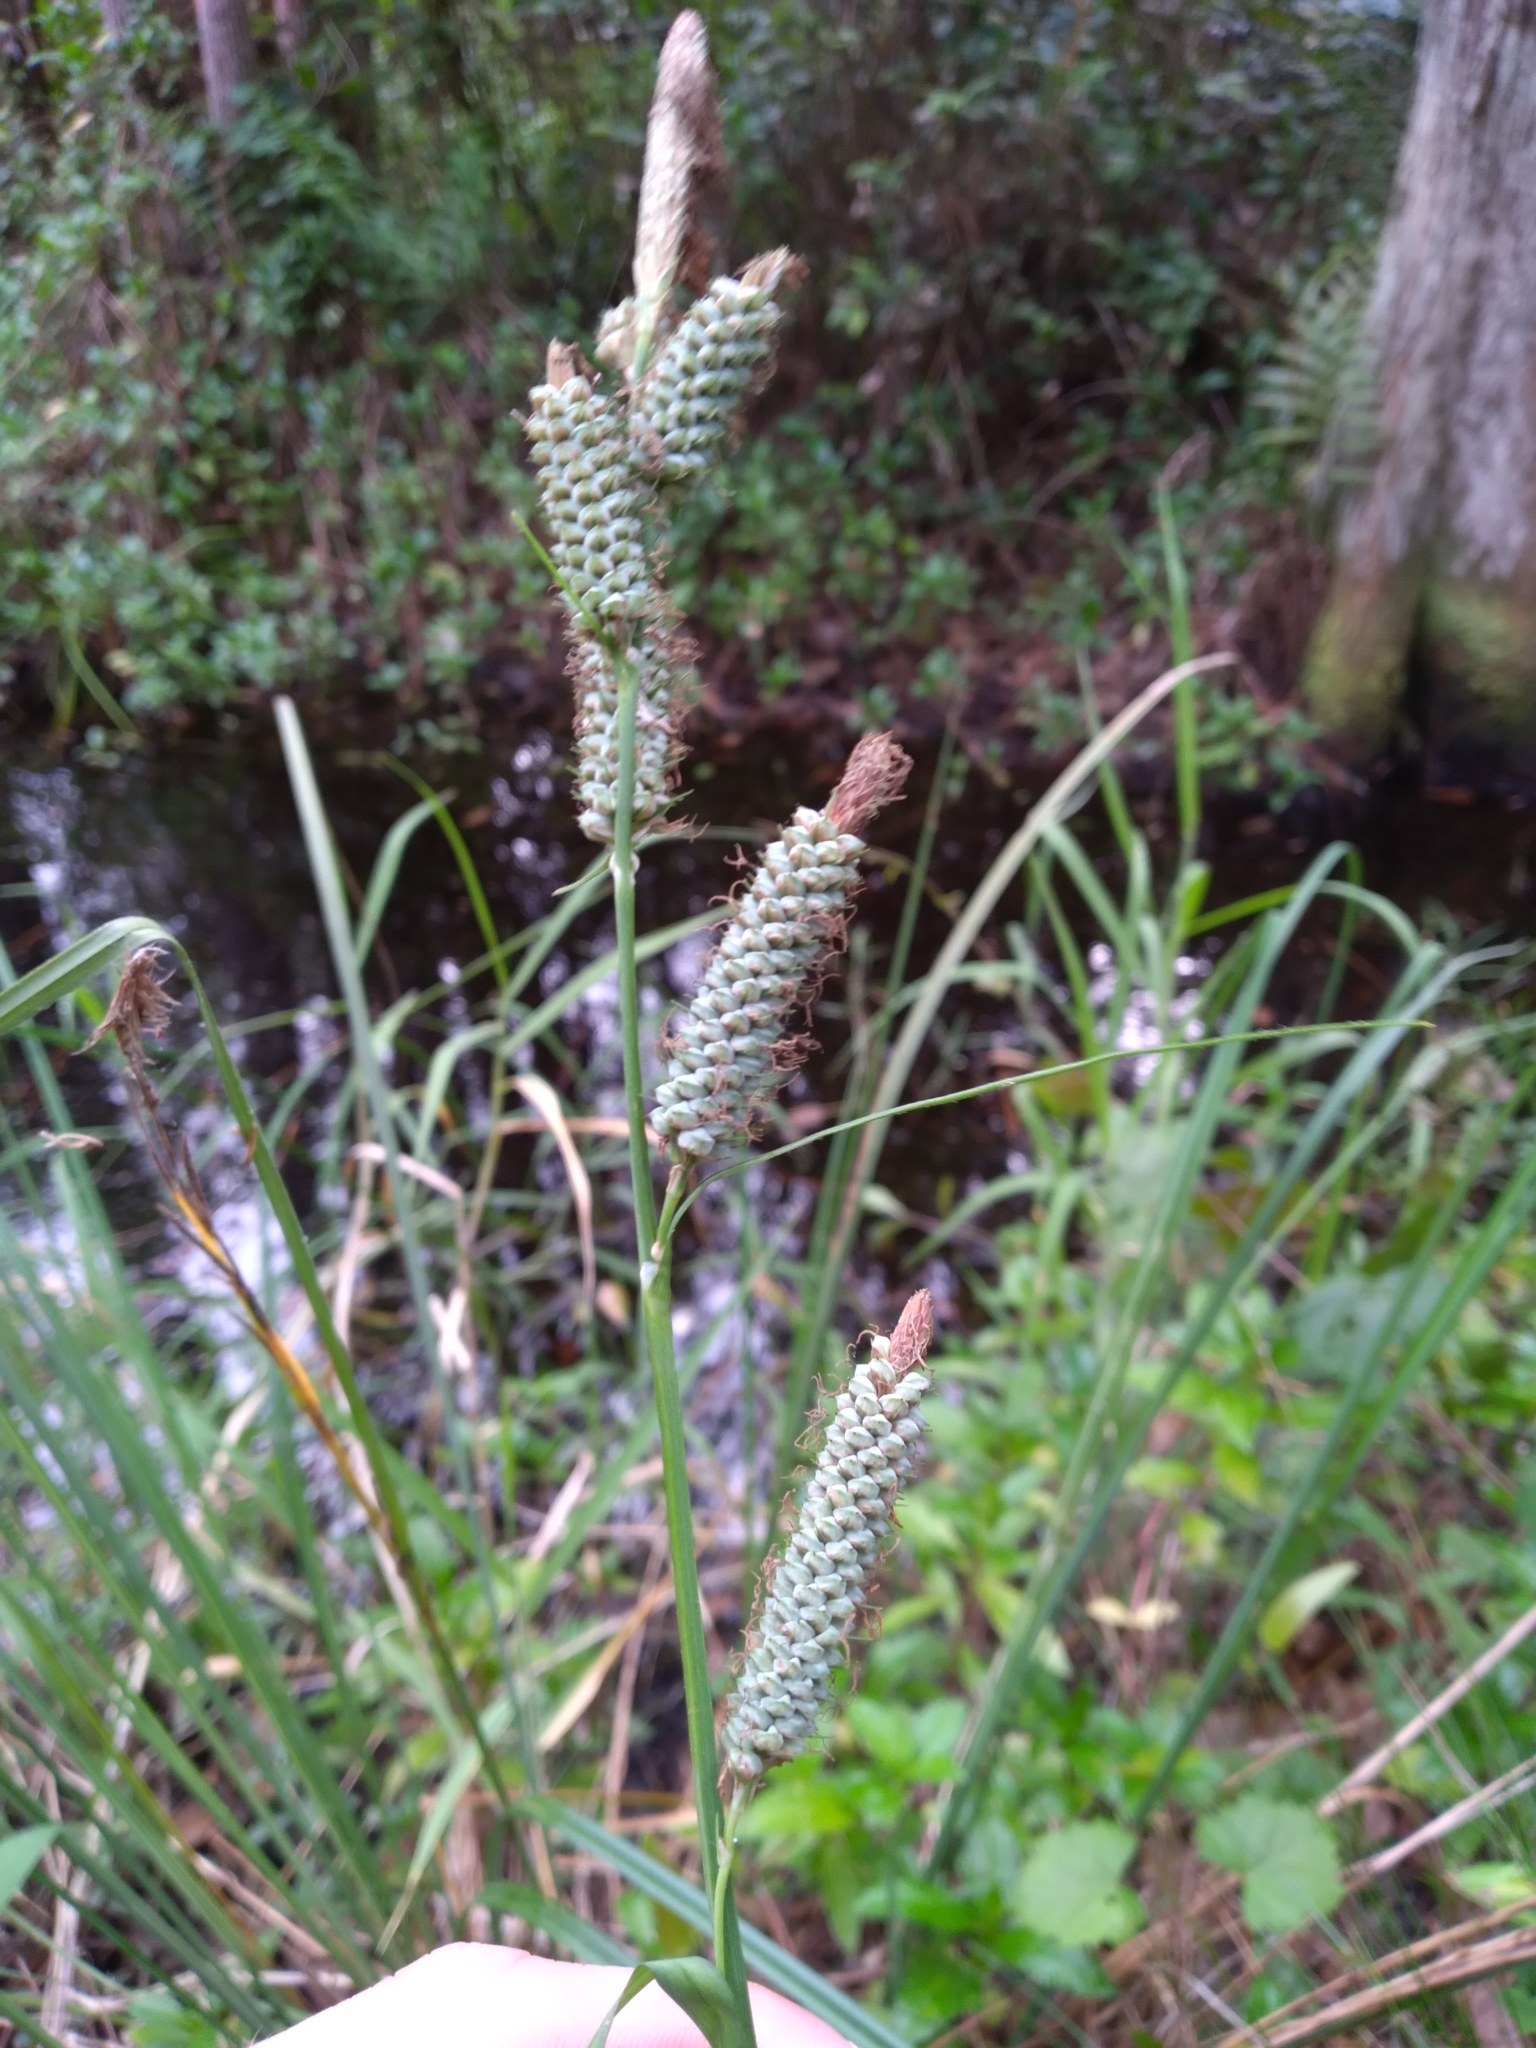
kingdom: Plantae
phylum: Tracheophyta
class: Liliopsida
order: Poales
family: Cyperaceae
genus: Carex
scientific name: Carex verrucosa
